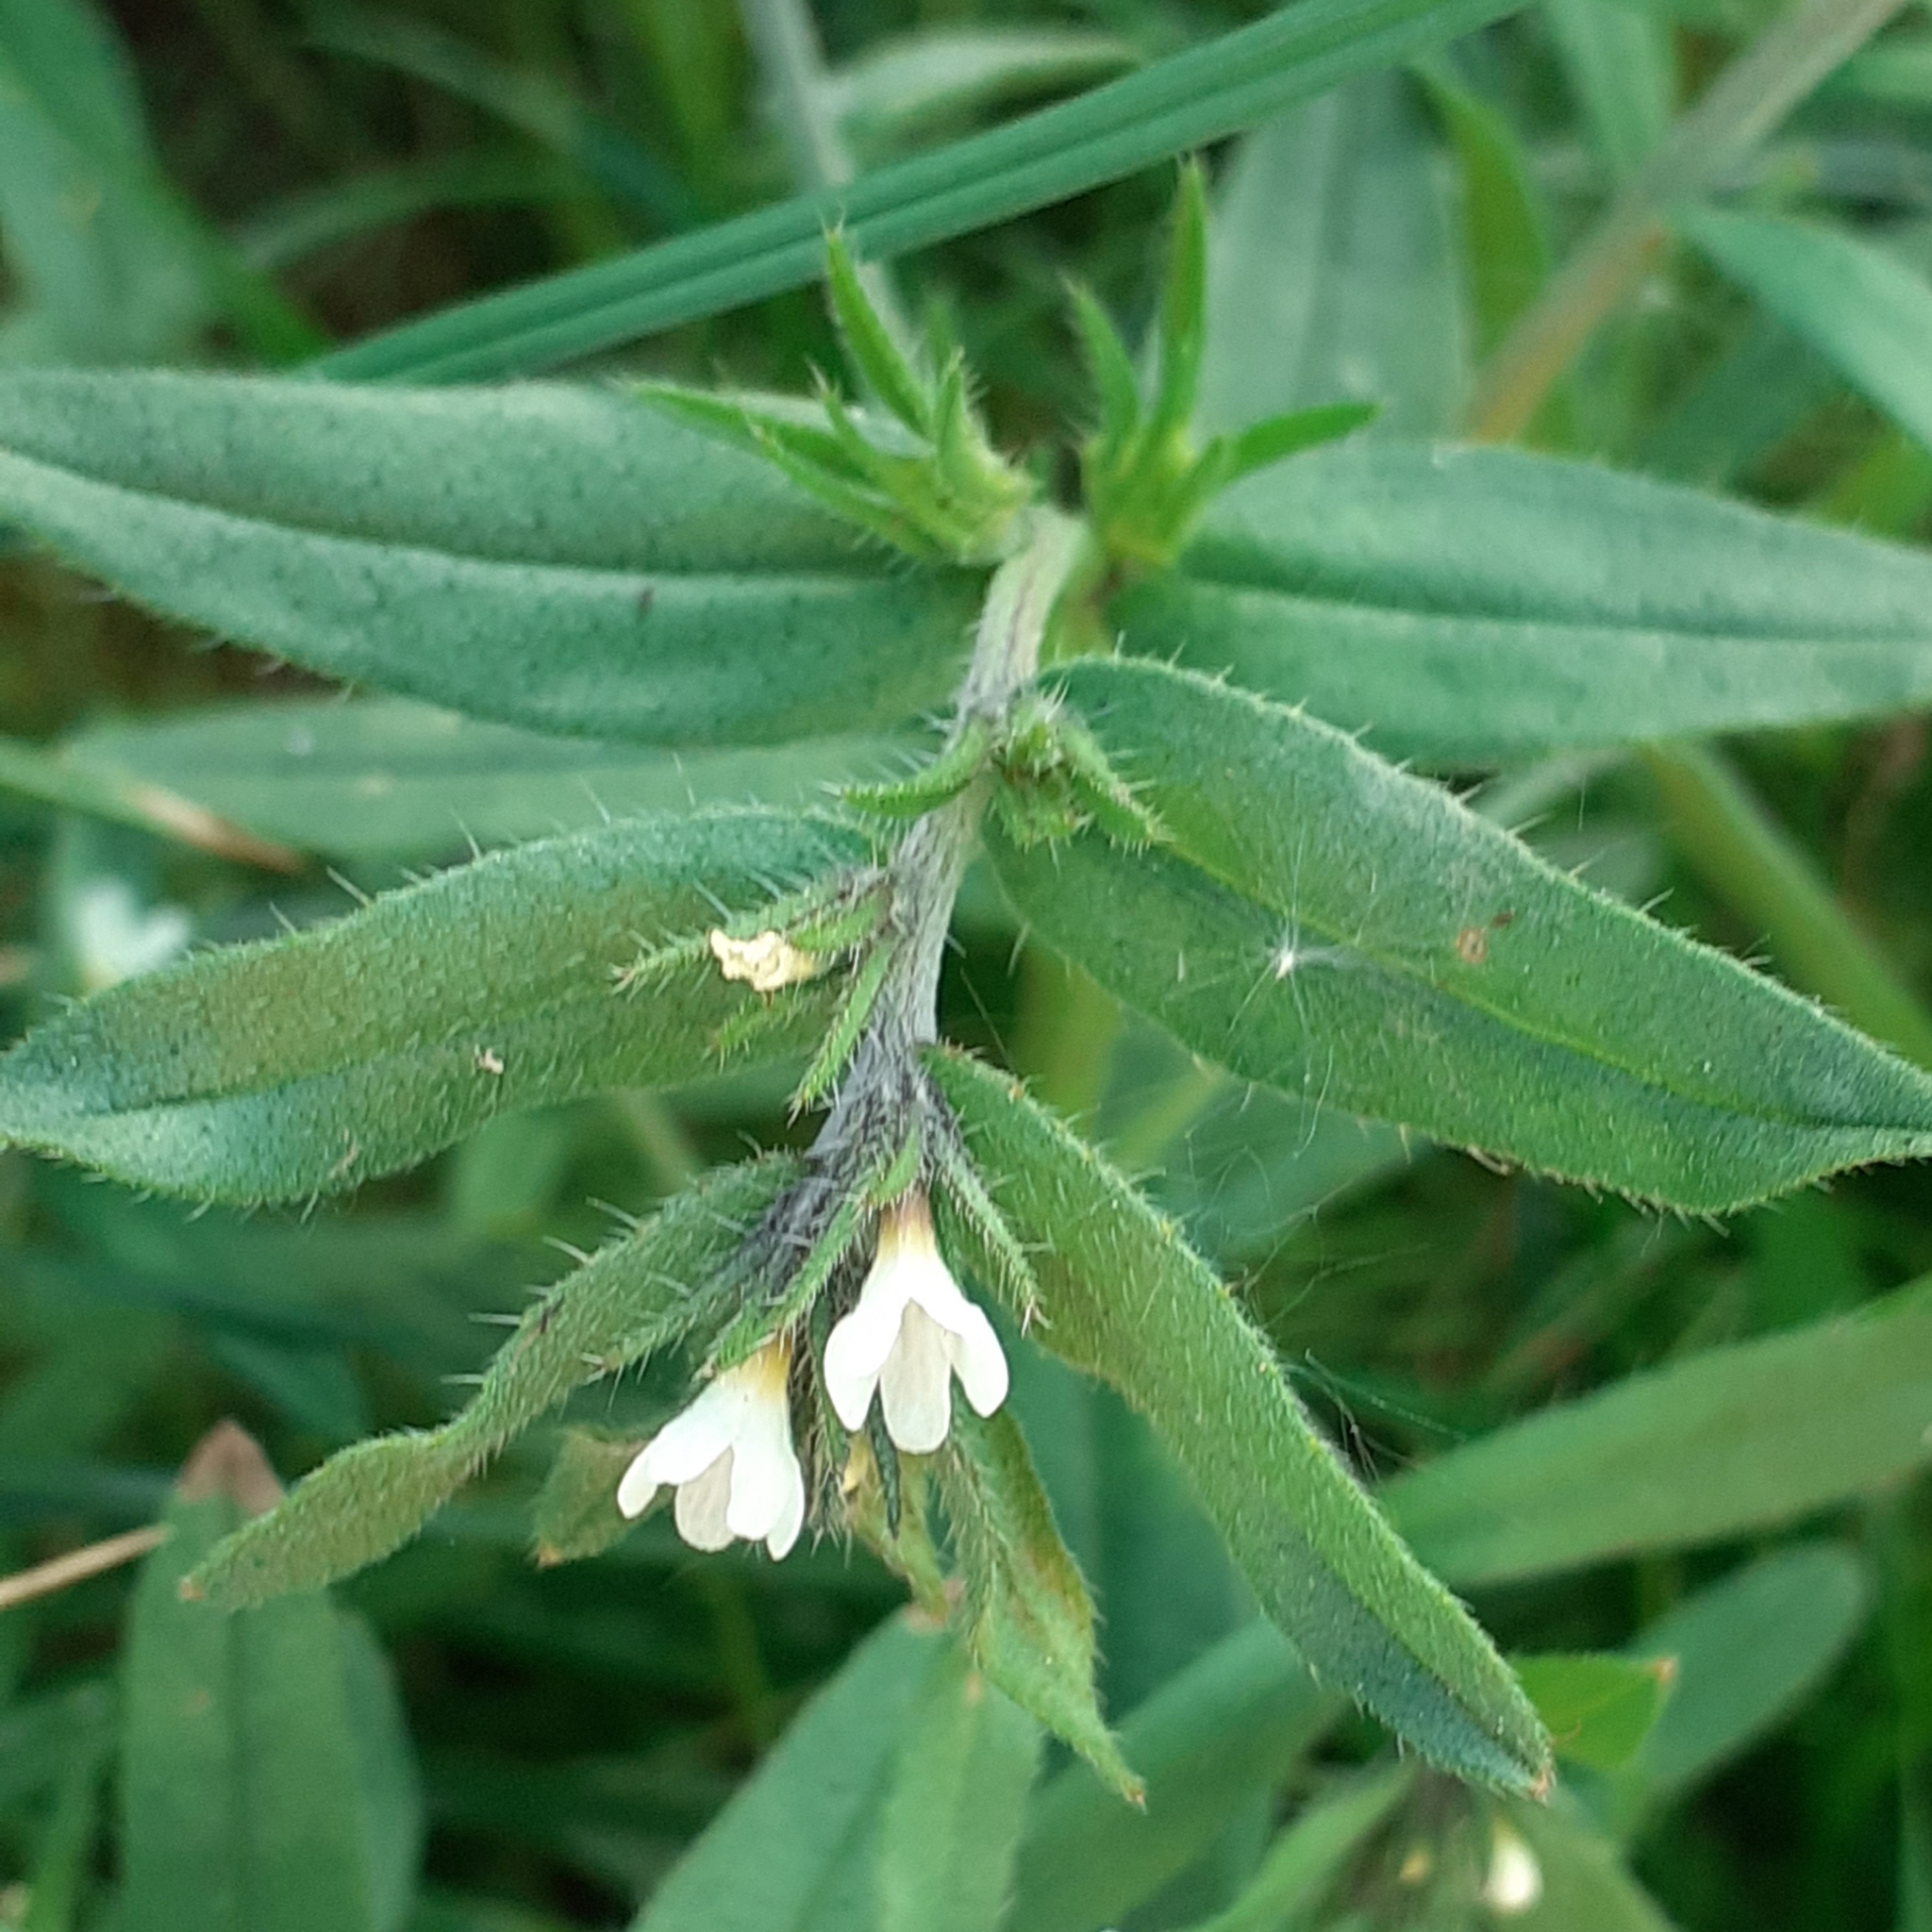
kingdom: Plantae
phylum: Tracheophyta
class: Magnoliopsida
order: Boraginales
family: Boraginaceae
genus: Buglossoides
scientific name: Buglossoides arvensis
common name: Corn gromwell
